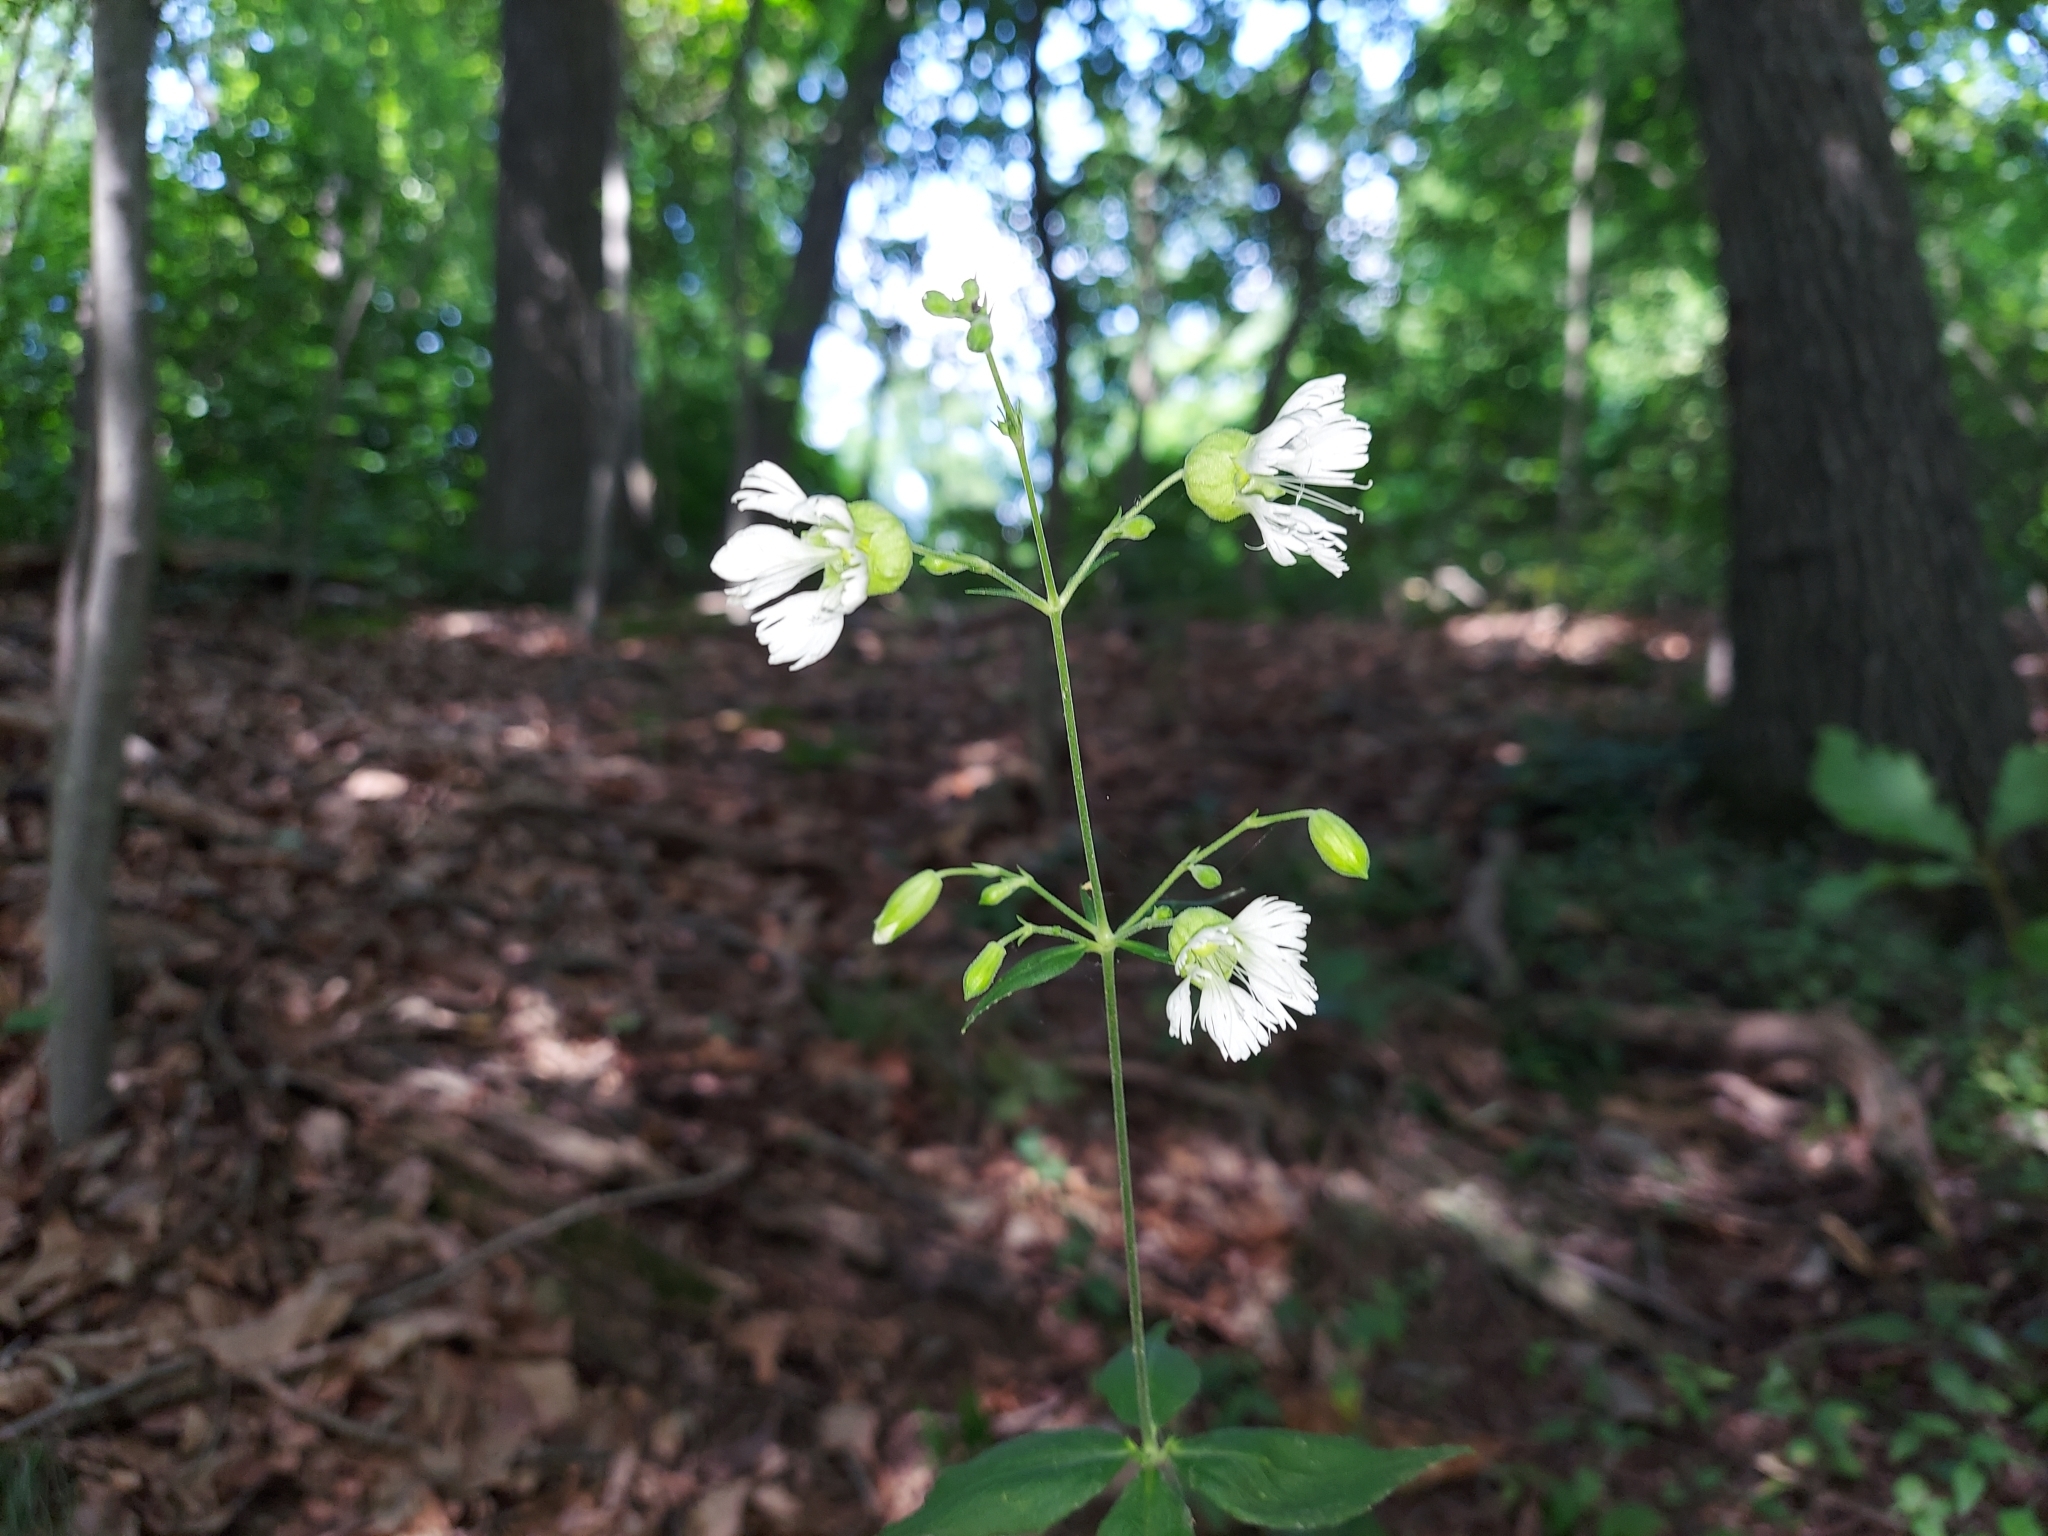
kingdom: Plantae
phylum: Tracheophyta
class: Magnoliopsida
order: Caryophyllales
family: Caryophyllaceae
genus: Silene
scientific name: Silene stellata
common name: Starry campion
